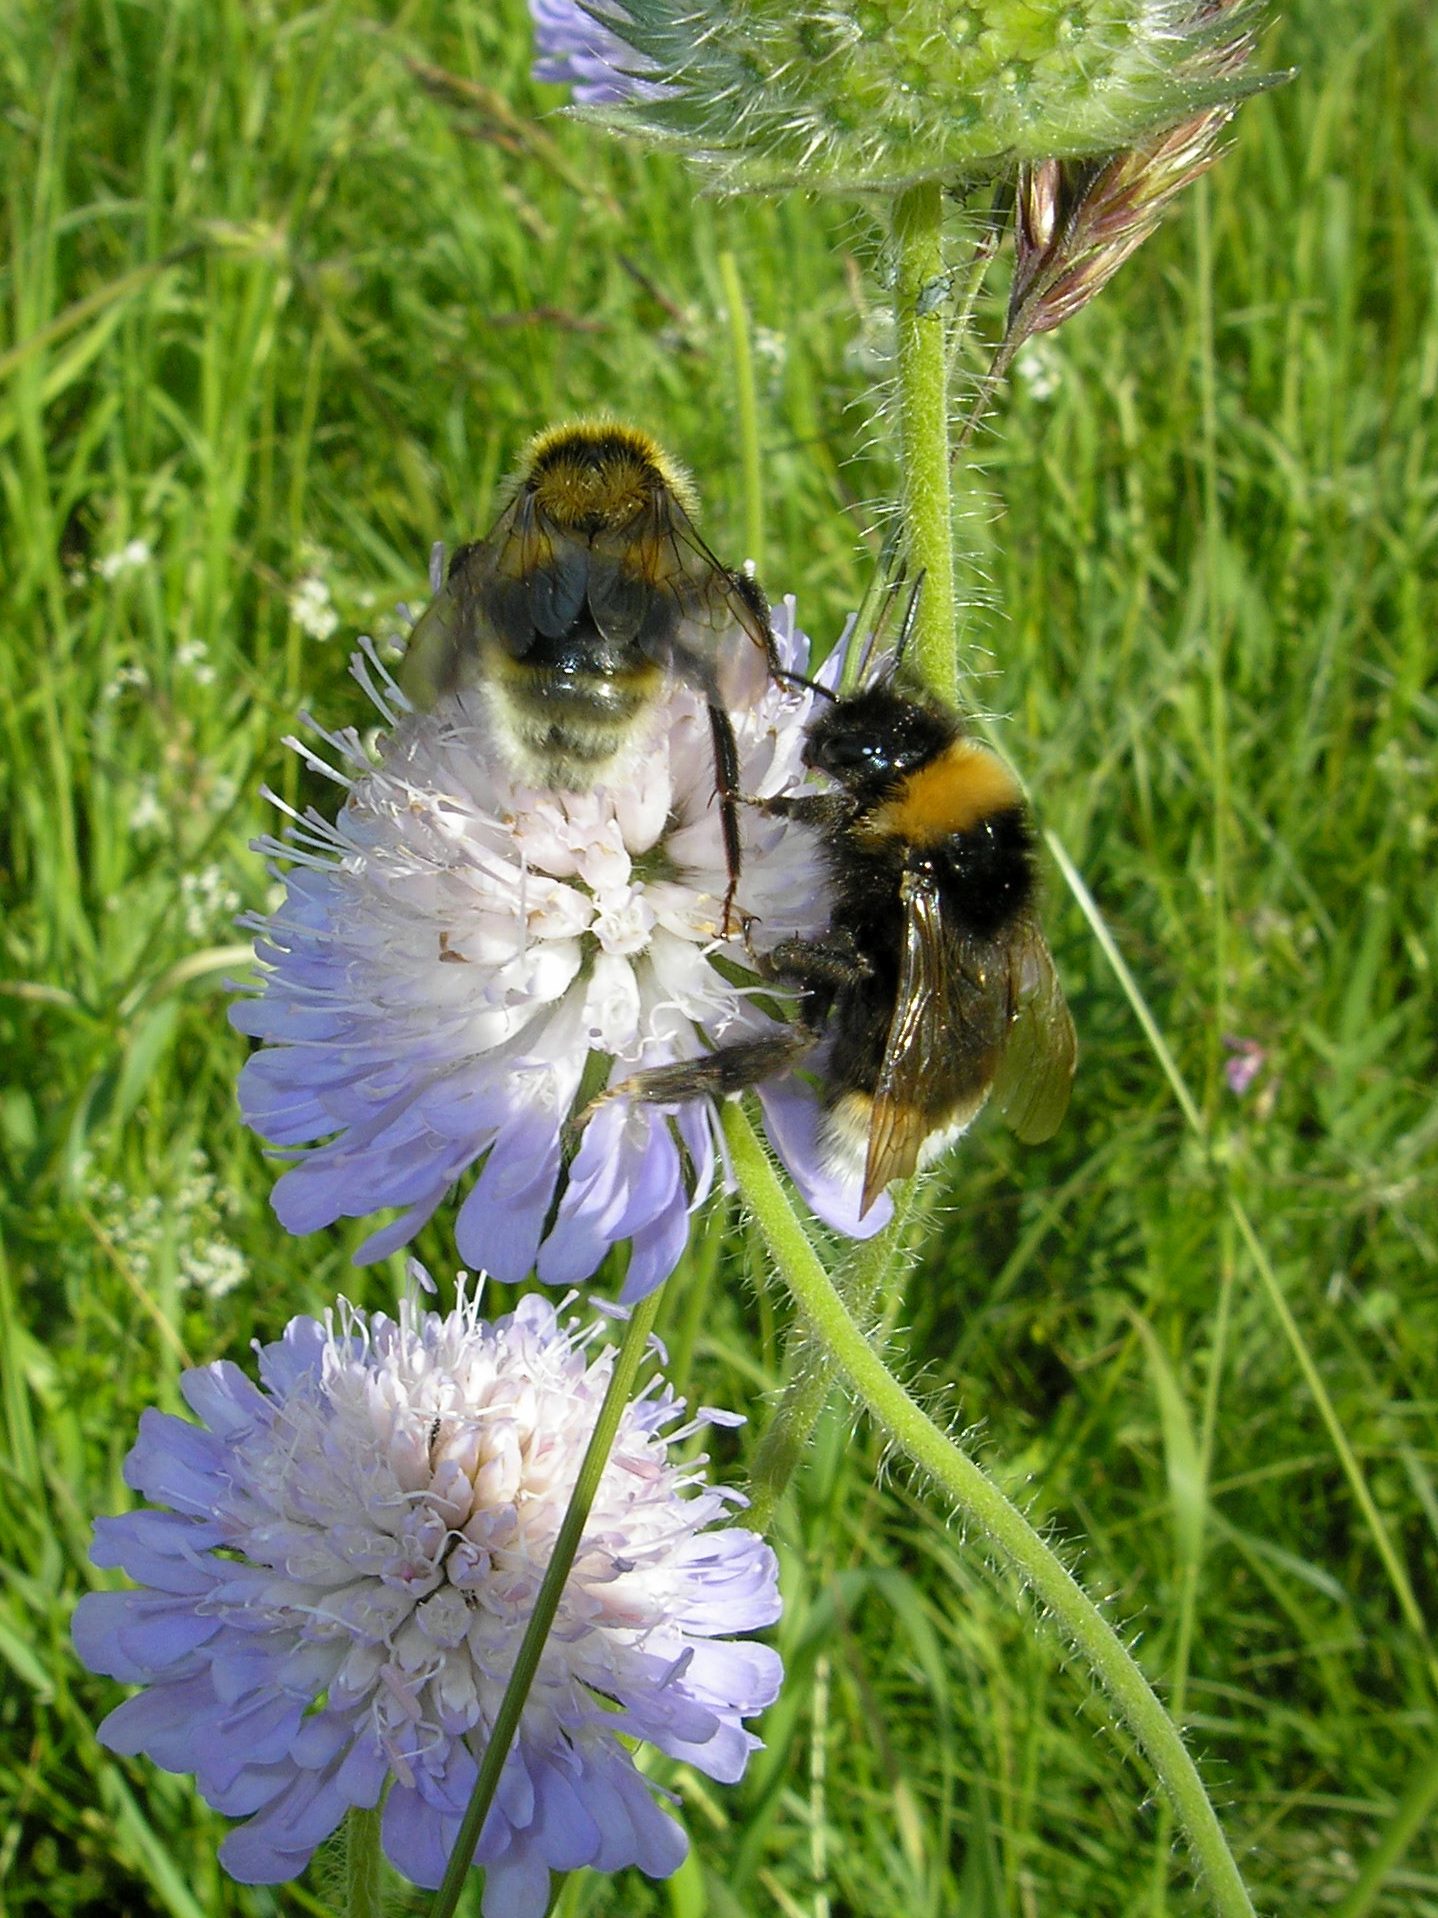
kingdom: Animalia
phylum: Arthropoda
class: Insecta
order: Hymenoptera
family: Apidae
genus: Bombus
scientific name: Bombus vestalis
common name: Vestal cuckoo bee
